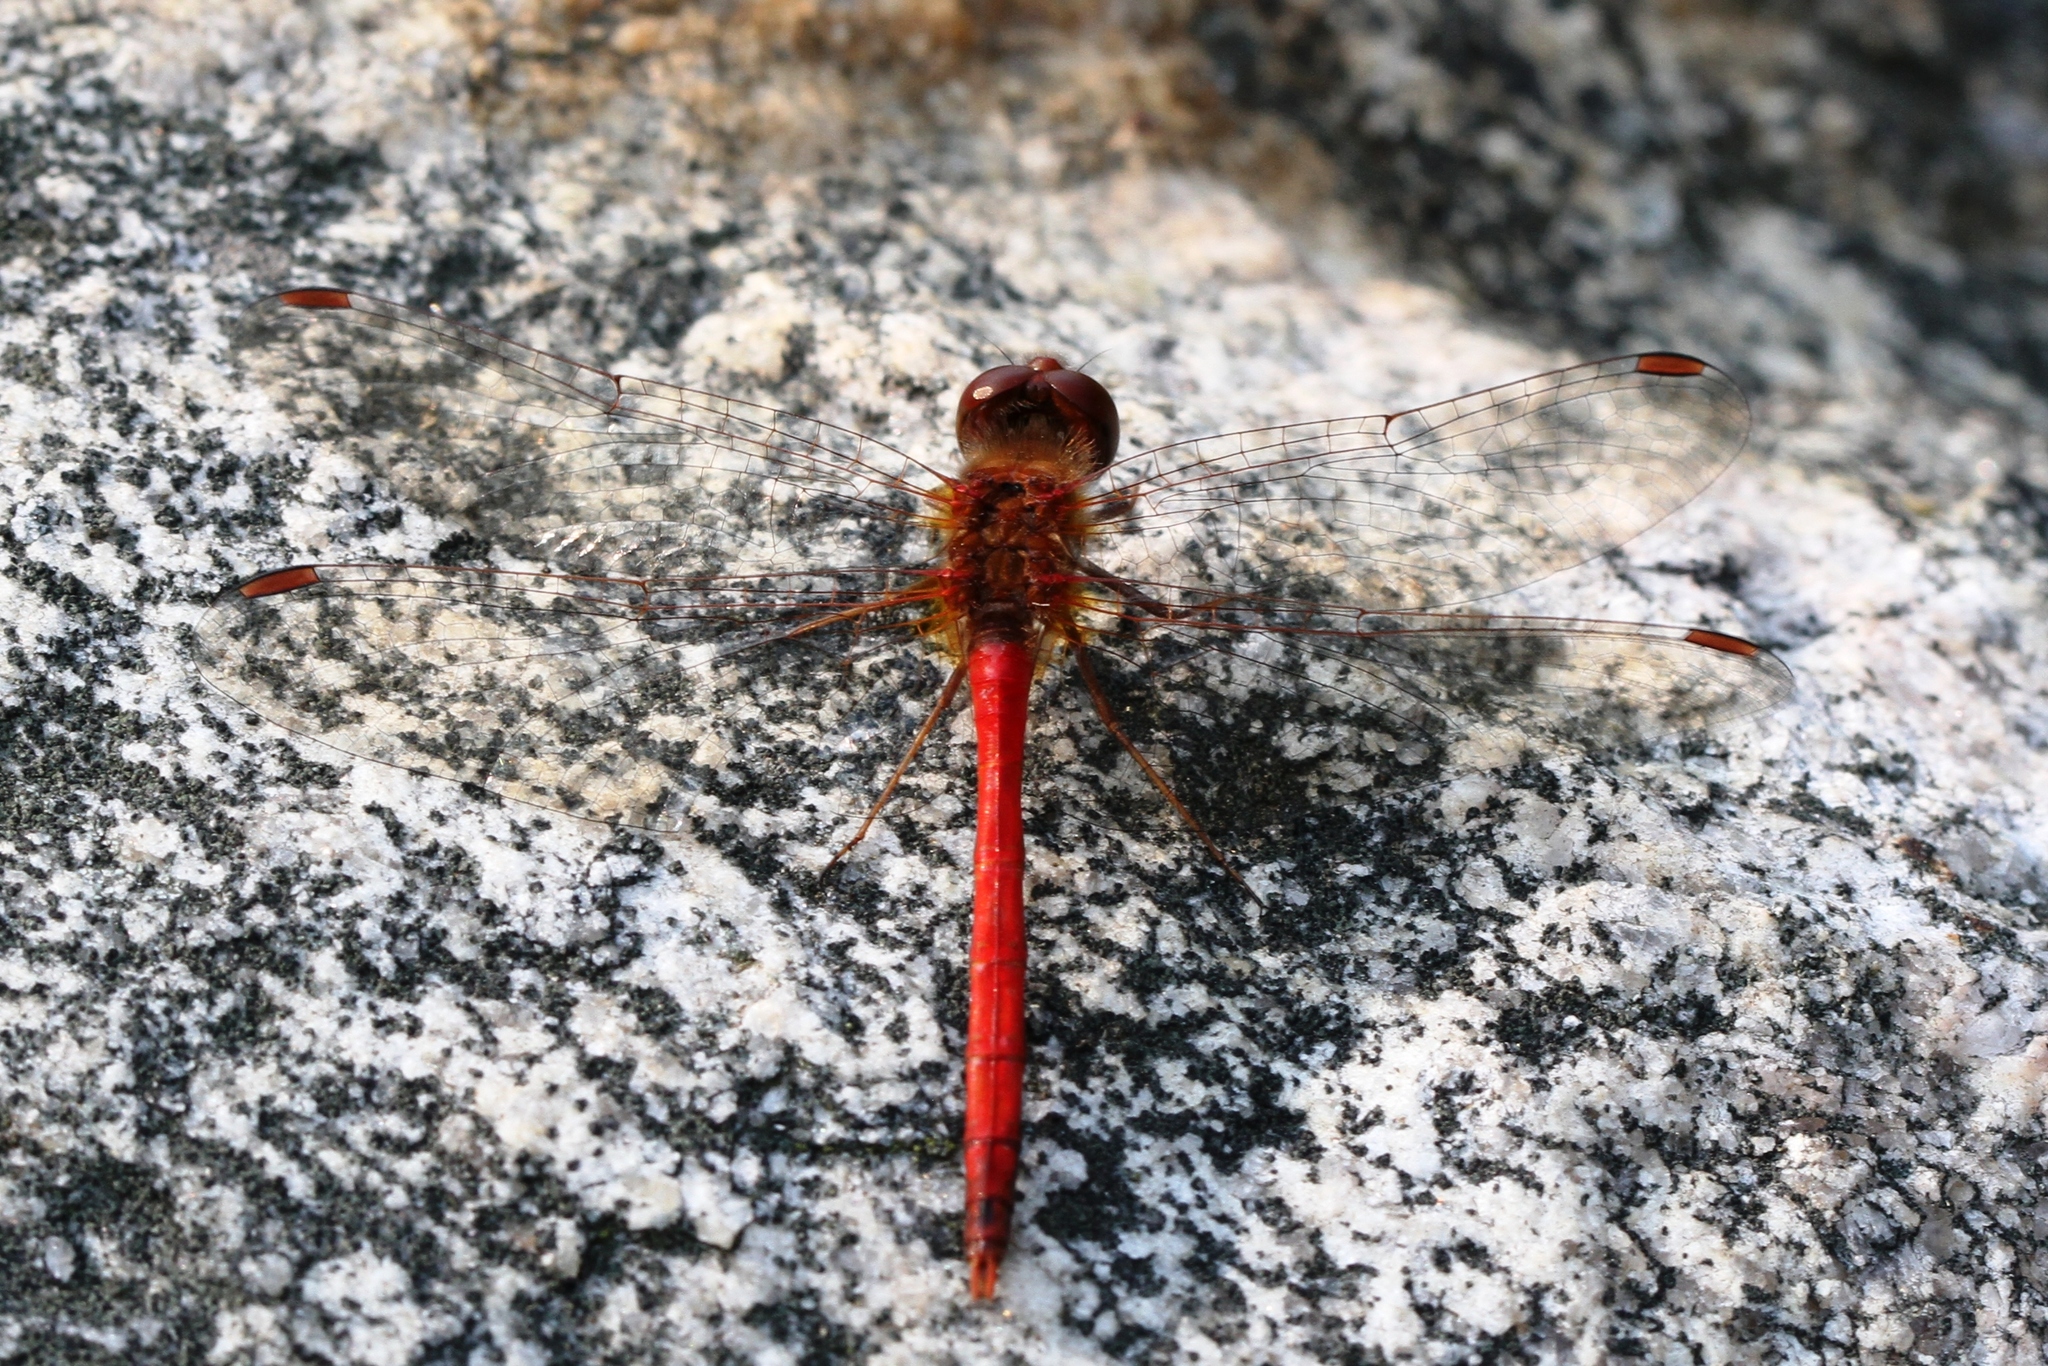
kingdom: Animalia
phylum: Arthropoda
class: Insecta
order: Odonata
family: Libellulidae
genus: Sympetrum
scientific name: Sympetrum vicinum
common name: Autumn meadowhawk
